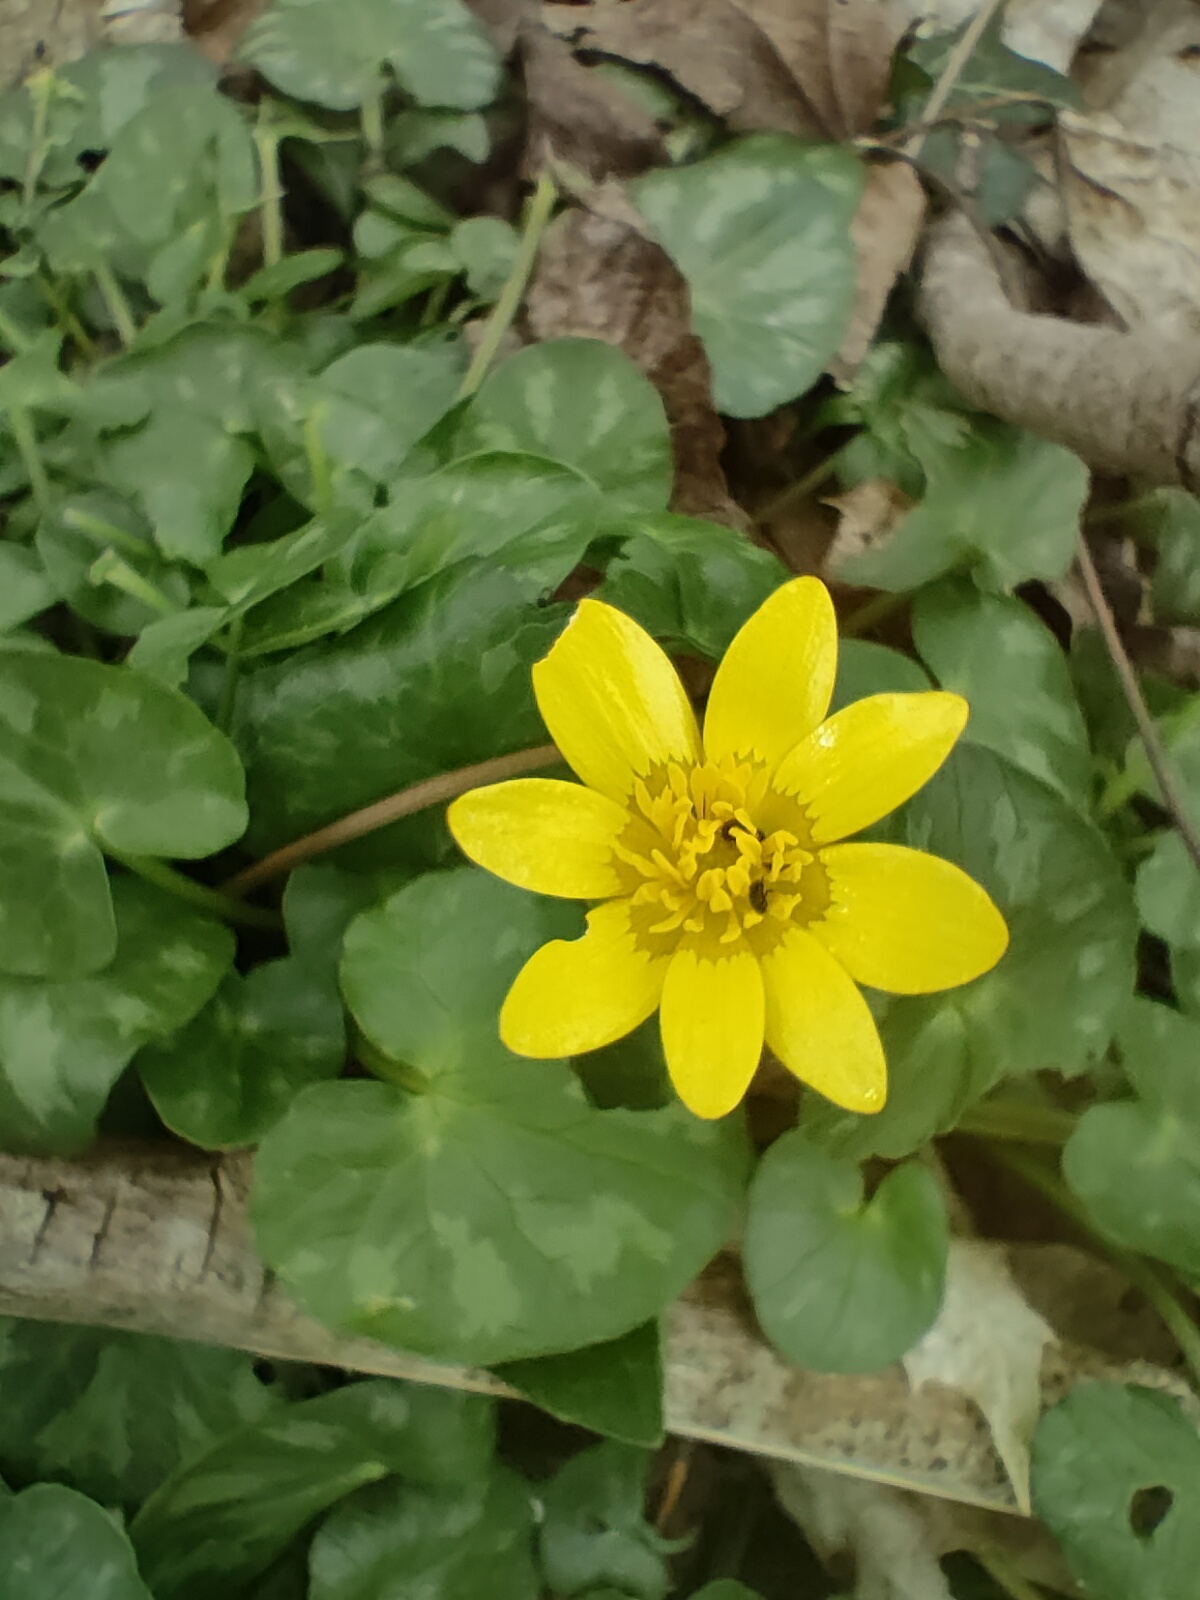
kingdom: Plantae
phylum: Tracheophyta
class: Magnoliopsida
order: Ranunculales
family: Ranunculaceae
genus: Ficaria
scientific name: Ficaria verna
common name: Lesser celandine
